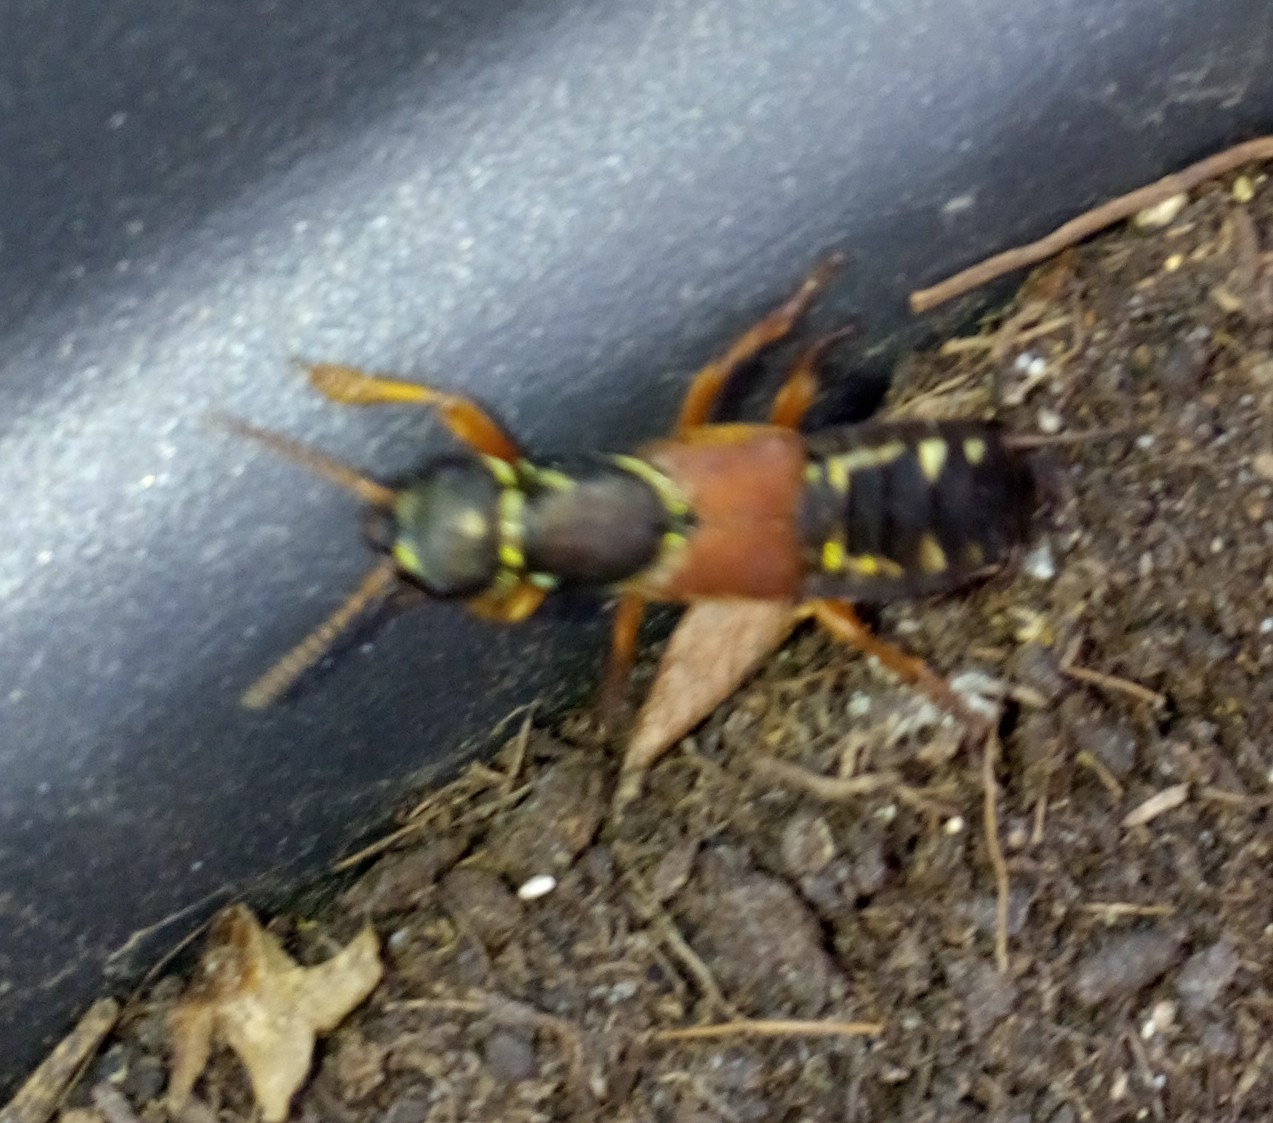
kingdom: Animalia
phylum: Arthropoda
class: Insecta
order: Coleoptera
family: Staphylinidae
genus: Staphylinus
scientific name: Staphylinus caesareus
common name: Staph beetle
